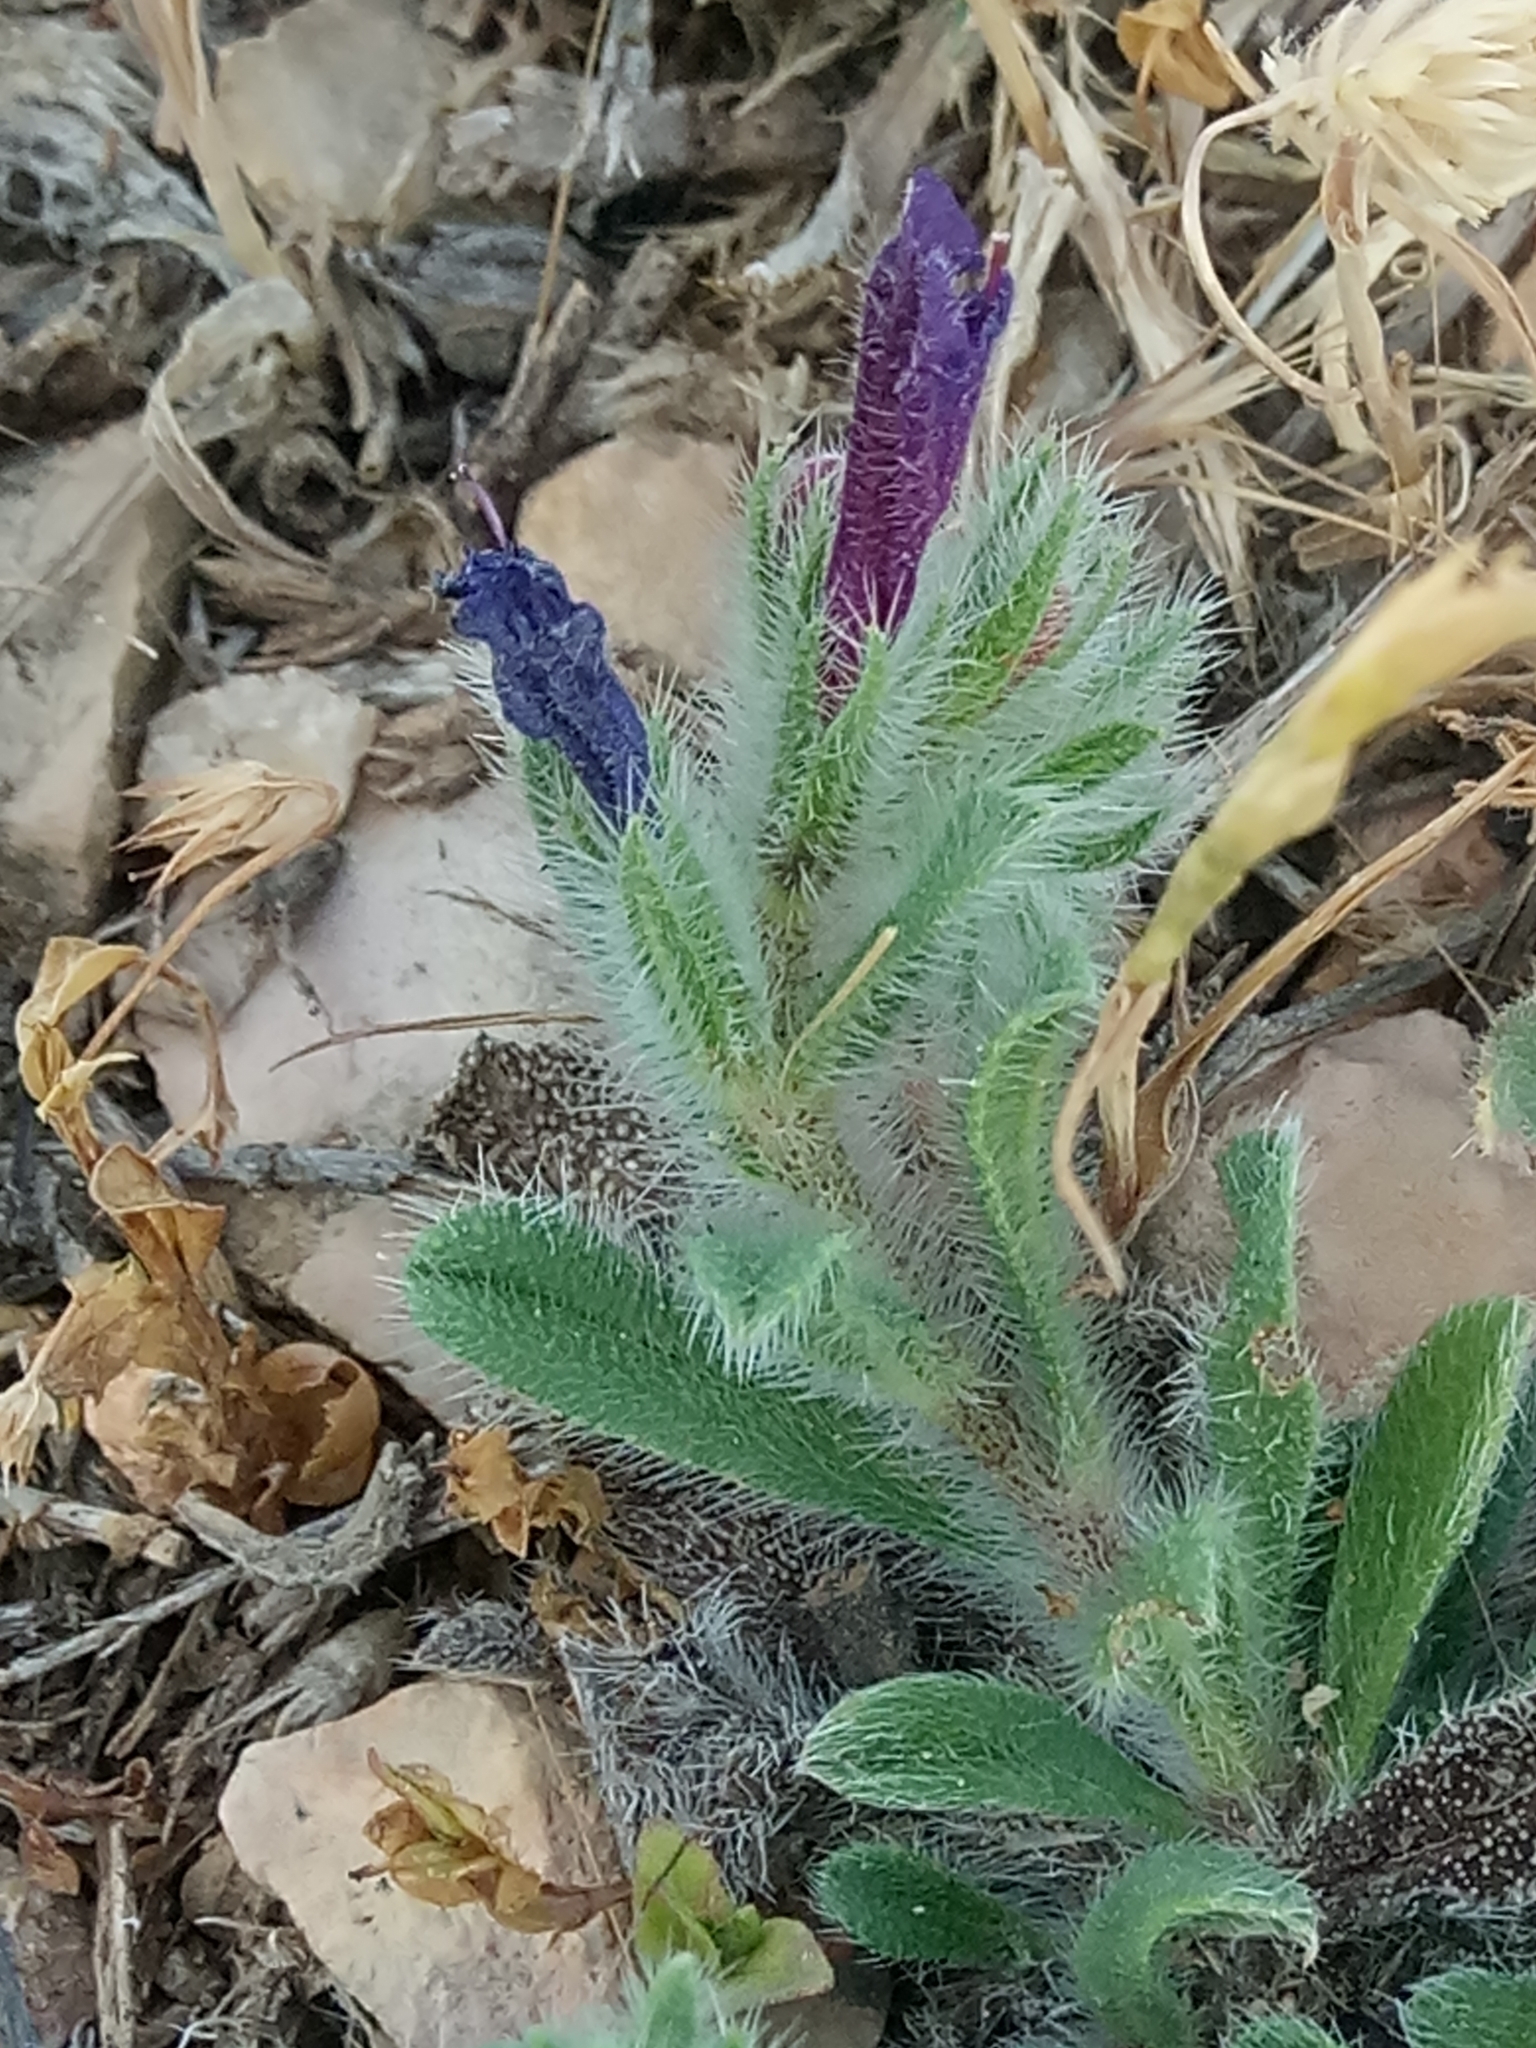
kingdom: Plantae
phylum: Tracheophyta
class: Magnoliopsida
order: Boraginales
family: Boraginaceae
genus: Echium
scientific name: Echium sabulicola
